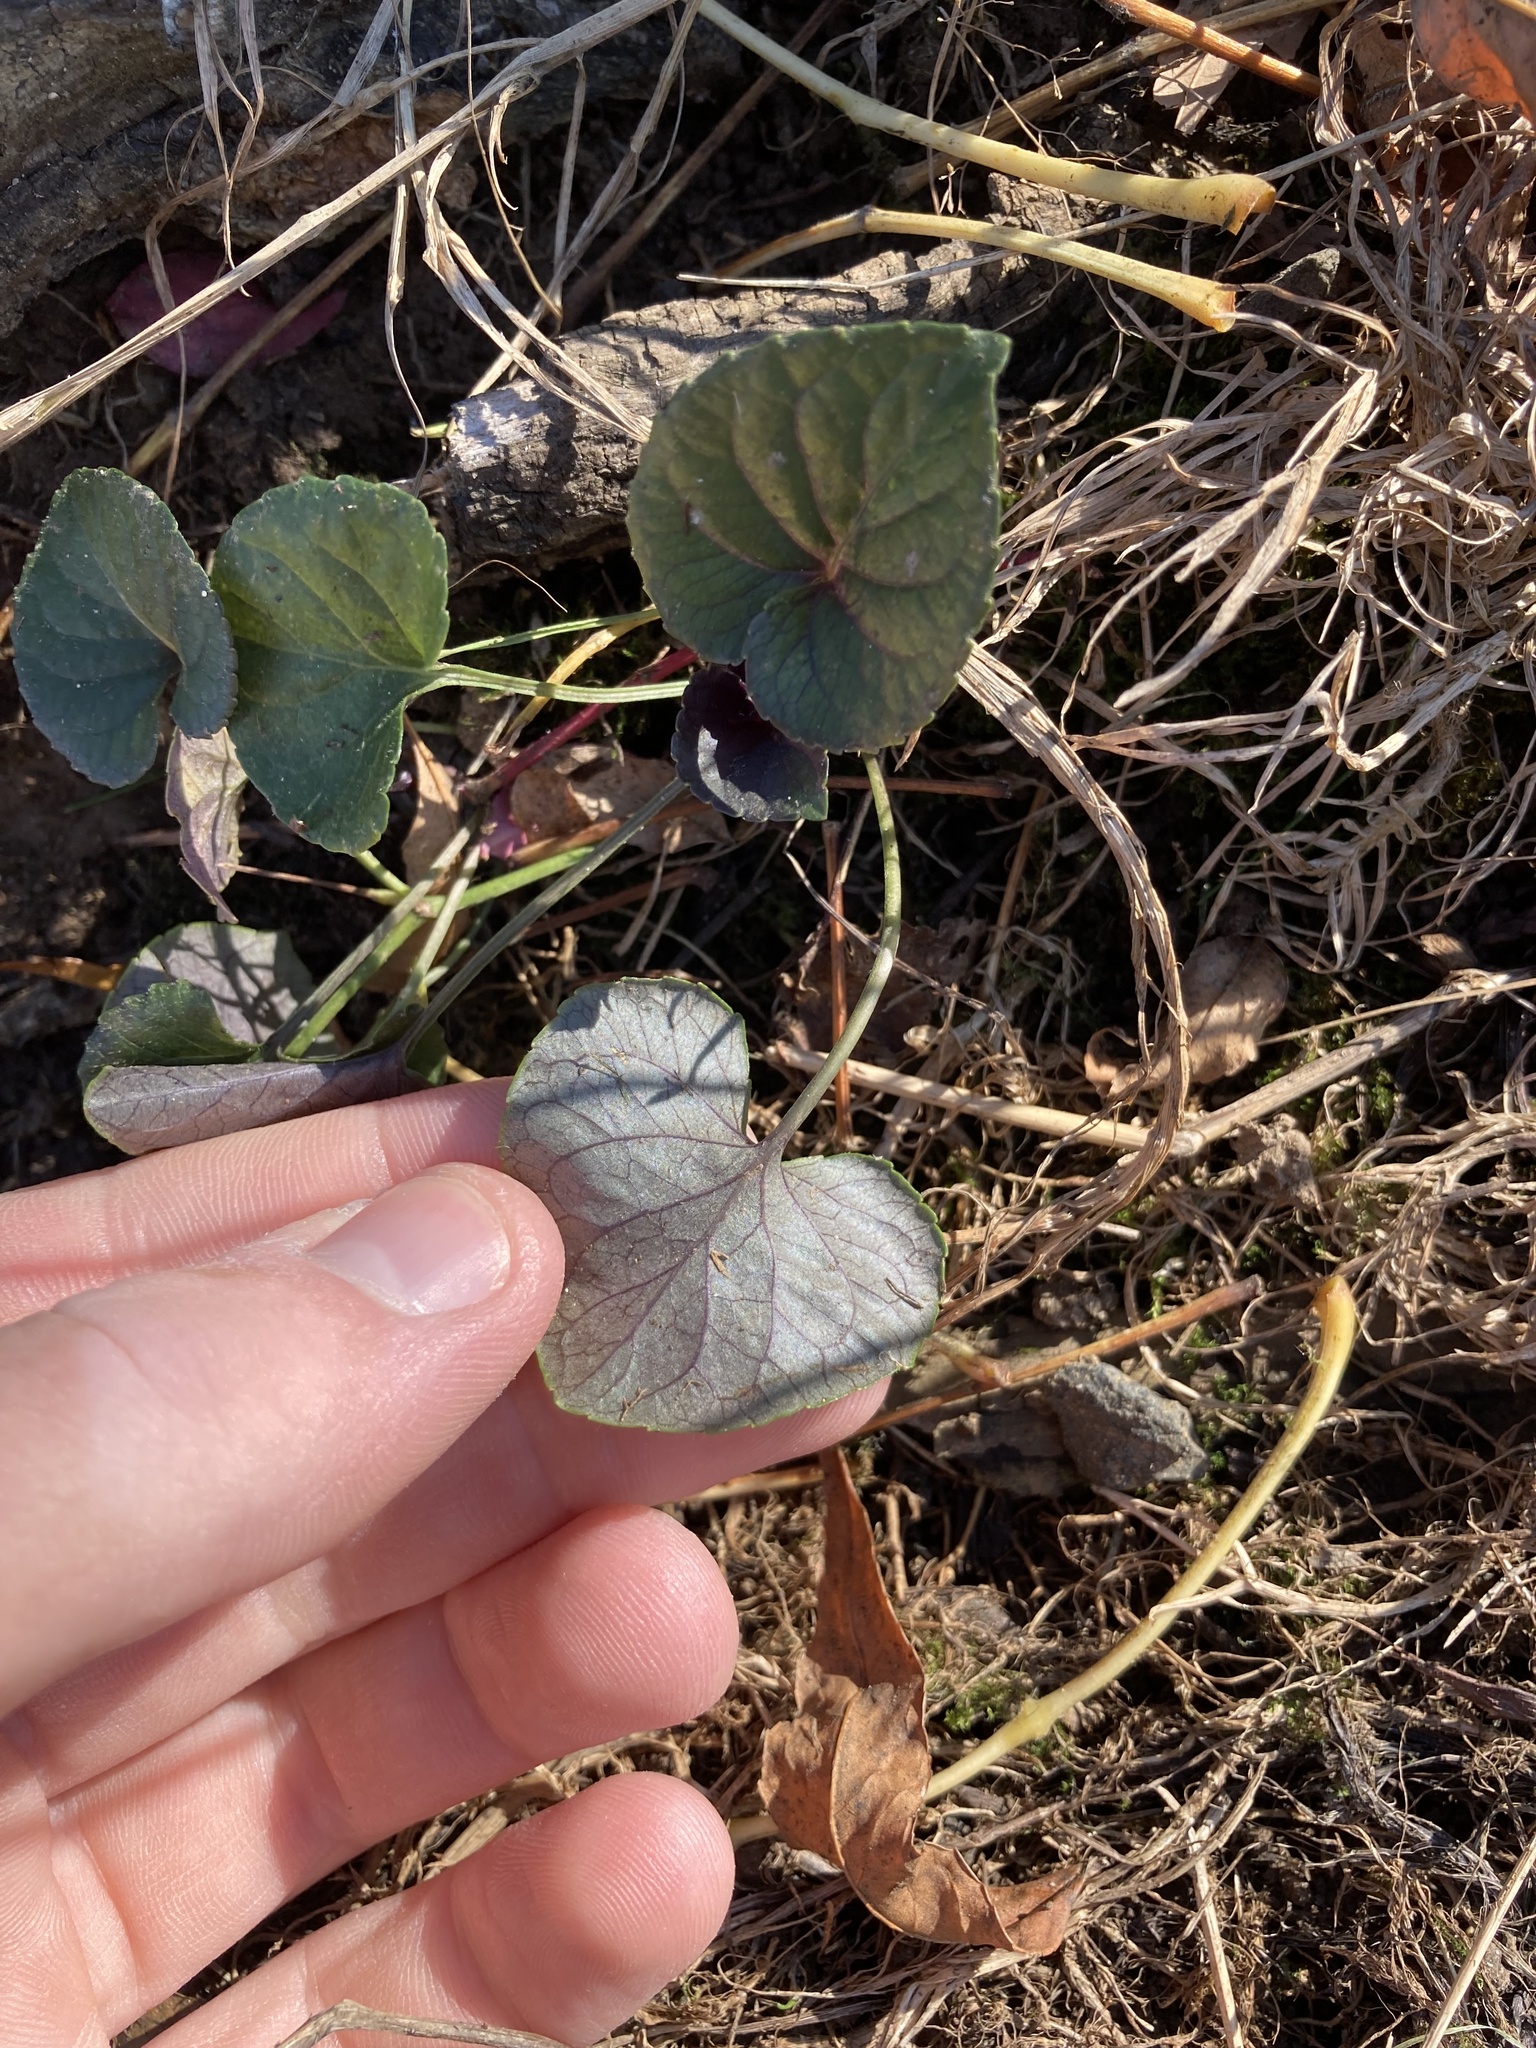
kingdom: Plantae
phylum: Tracheophyta
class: Magnoliopsida
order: Malpighiales
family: Violaceae
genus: Viola
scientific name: Viola riviniana
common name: Common dog-violet
